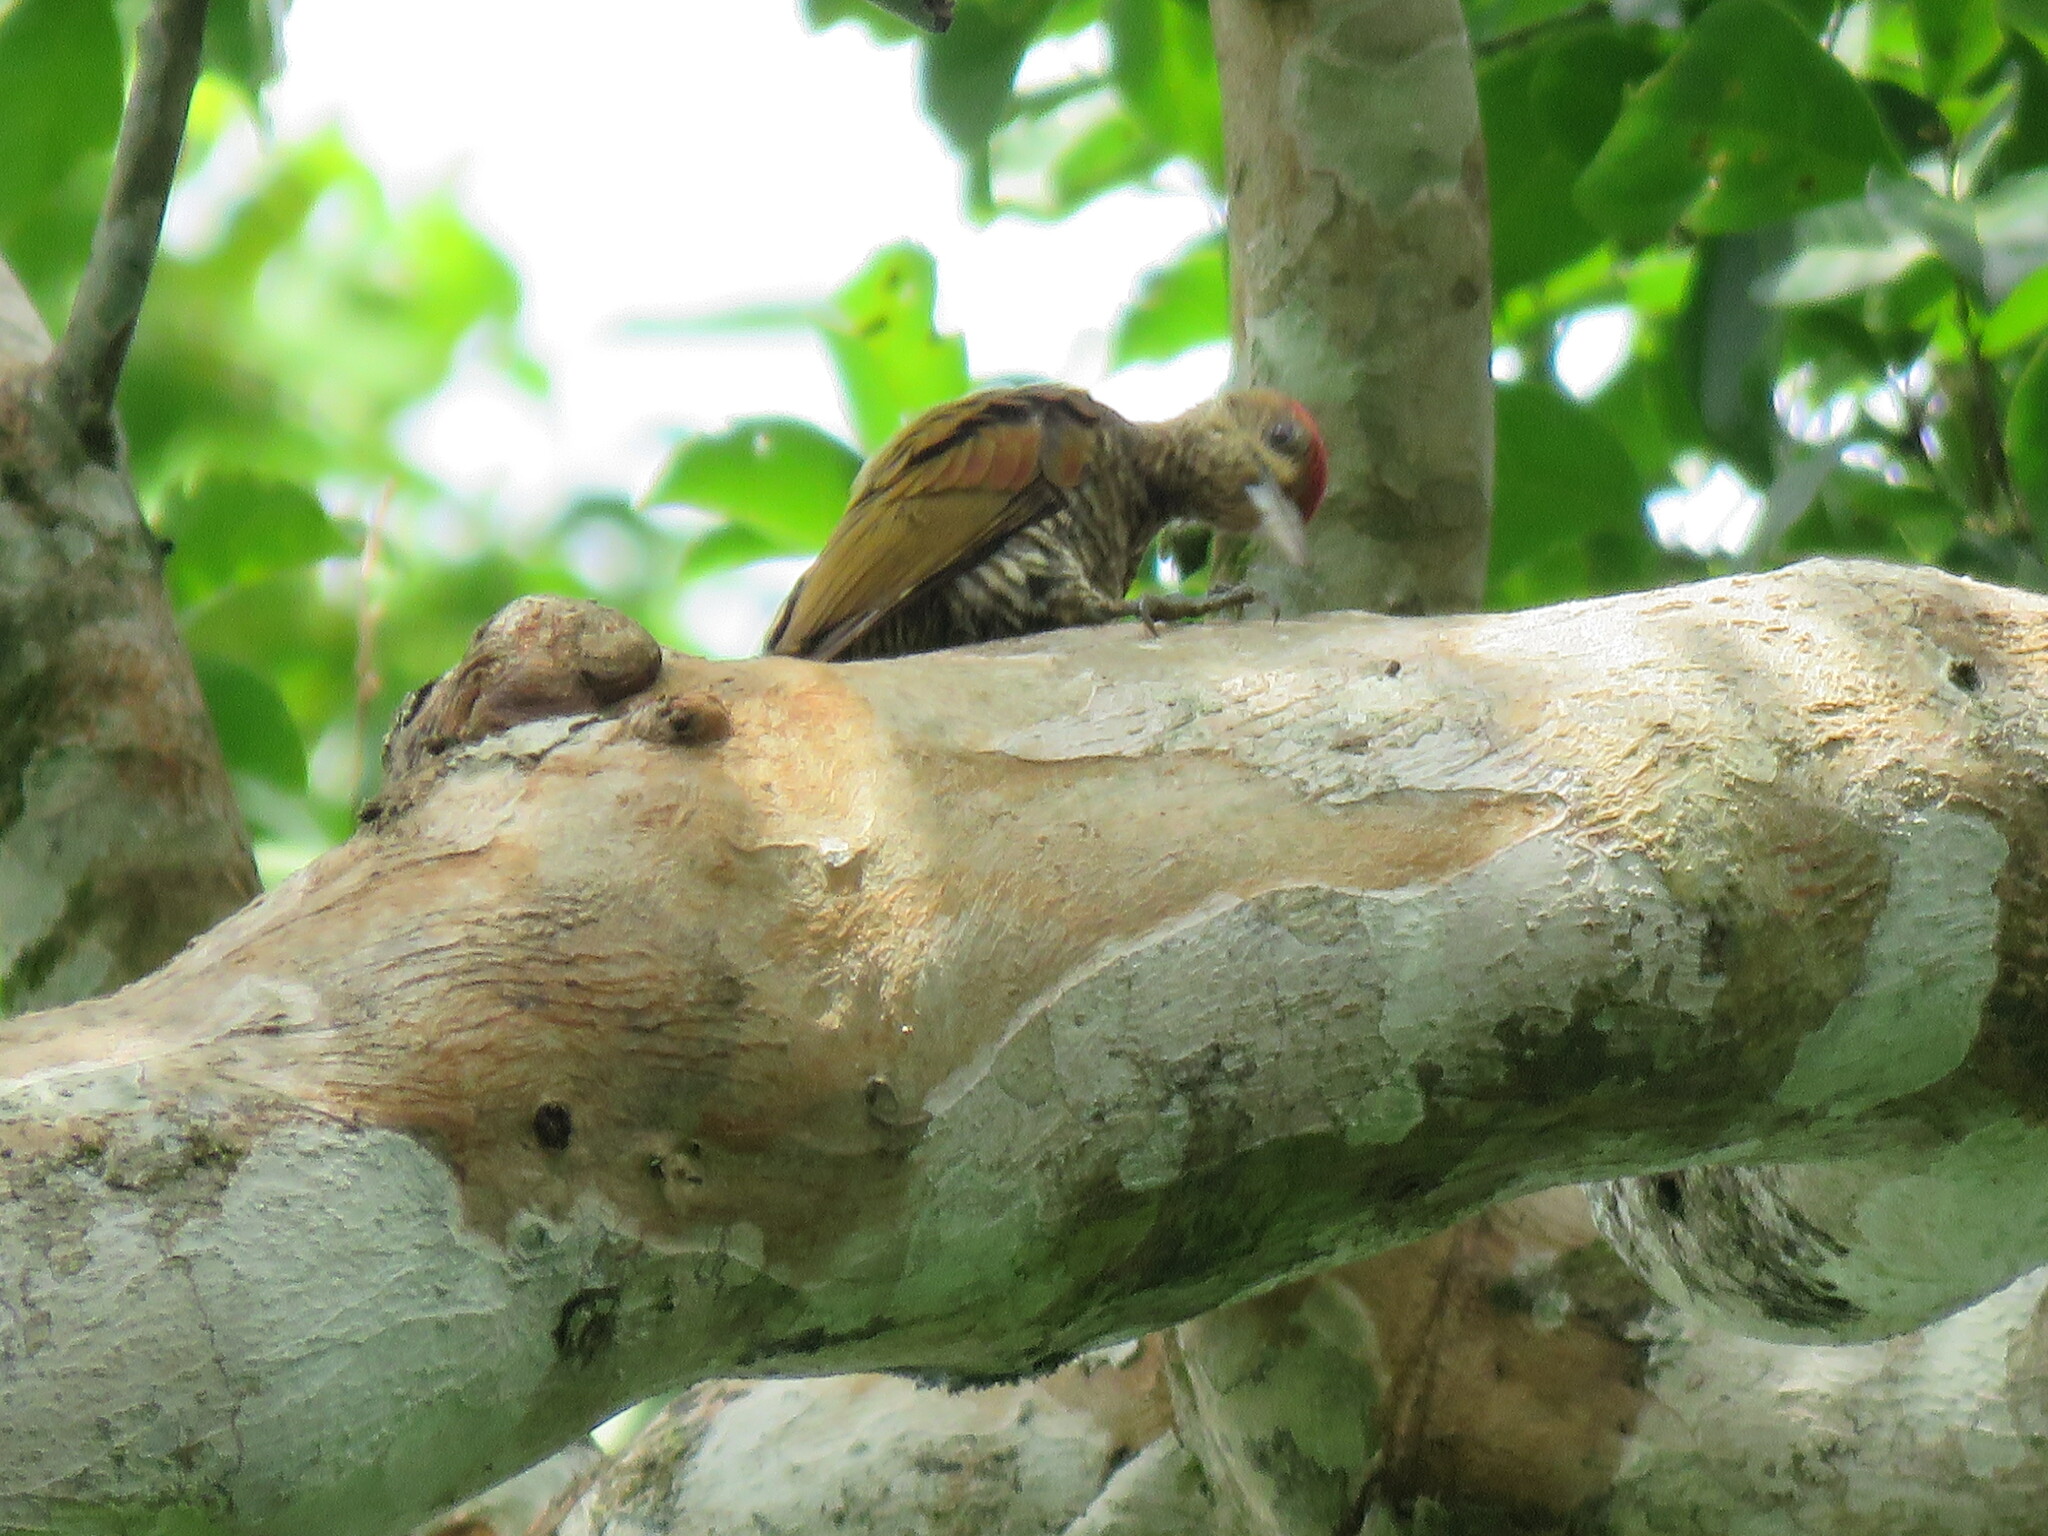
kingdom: Animalia
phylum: Chordata
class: Aves
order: Piciformes
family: Picidae
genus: Veniliornis
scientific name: Veniliornis affinis
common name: Red-stained woodpecker
